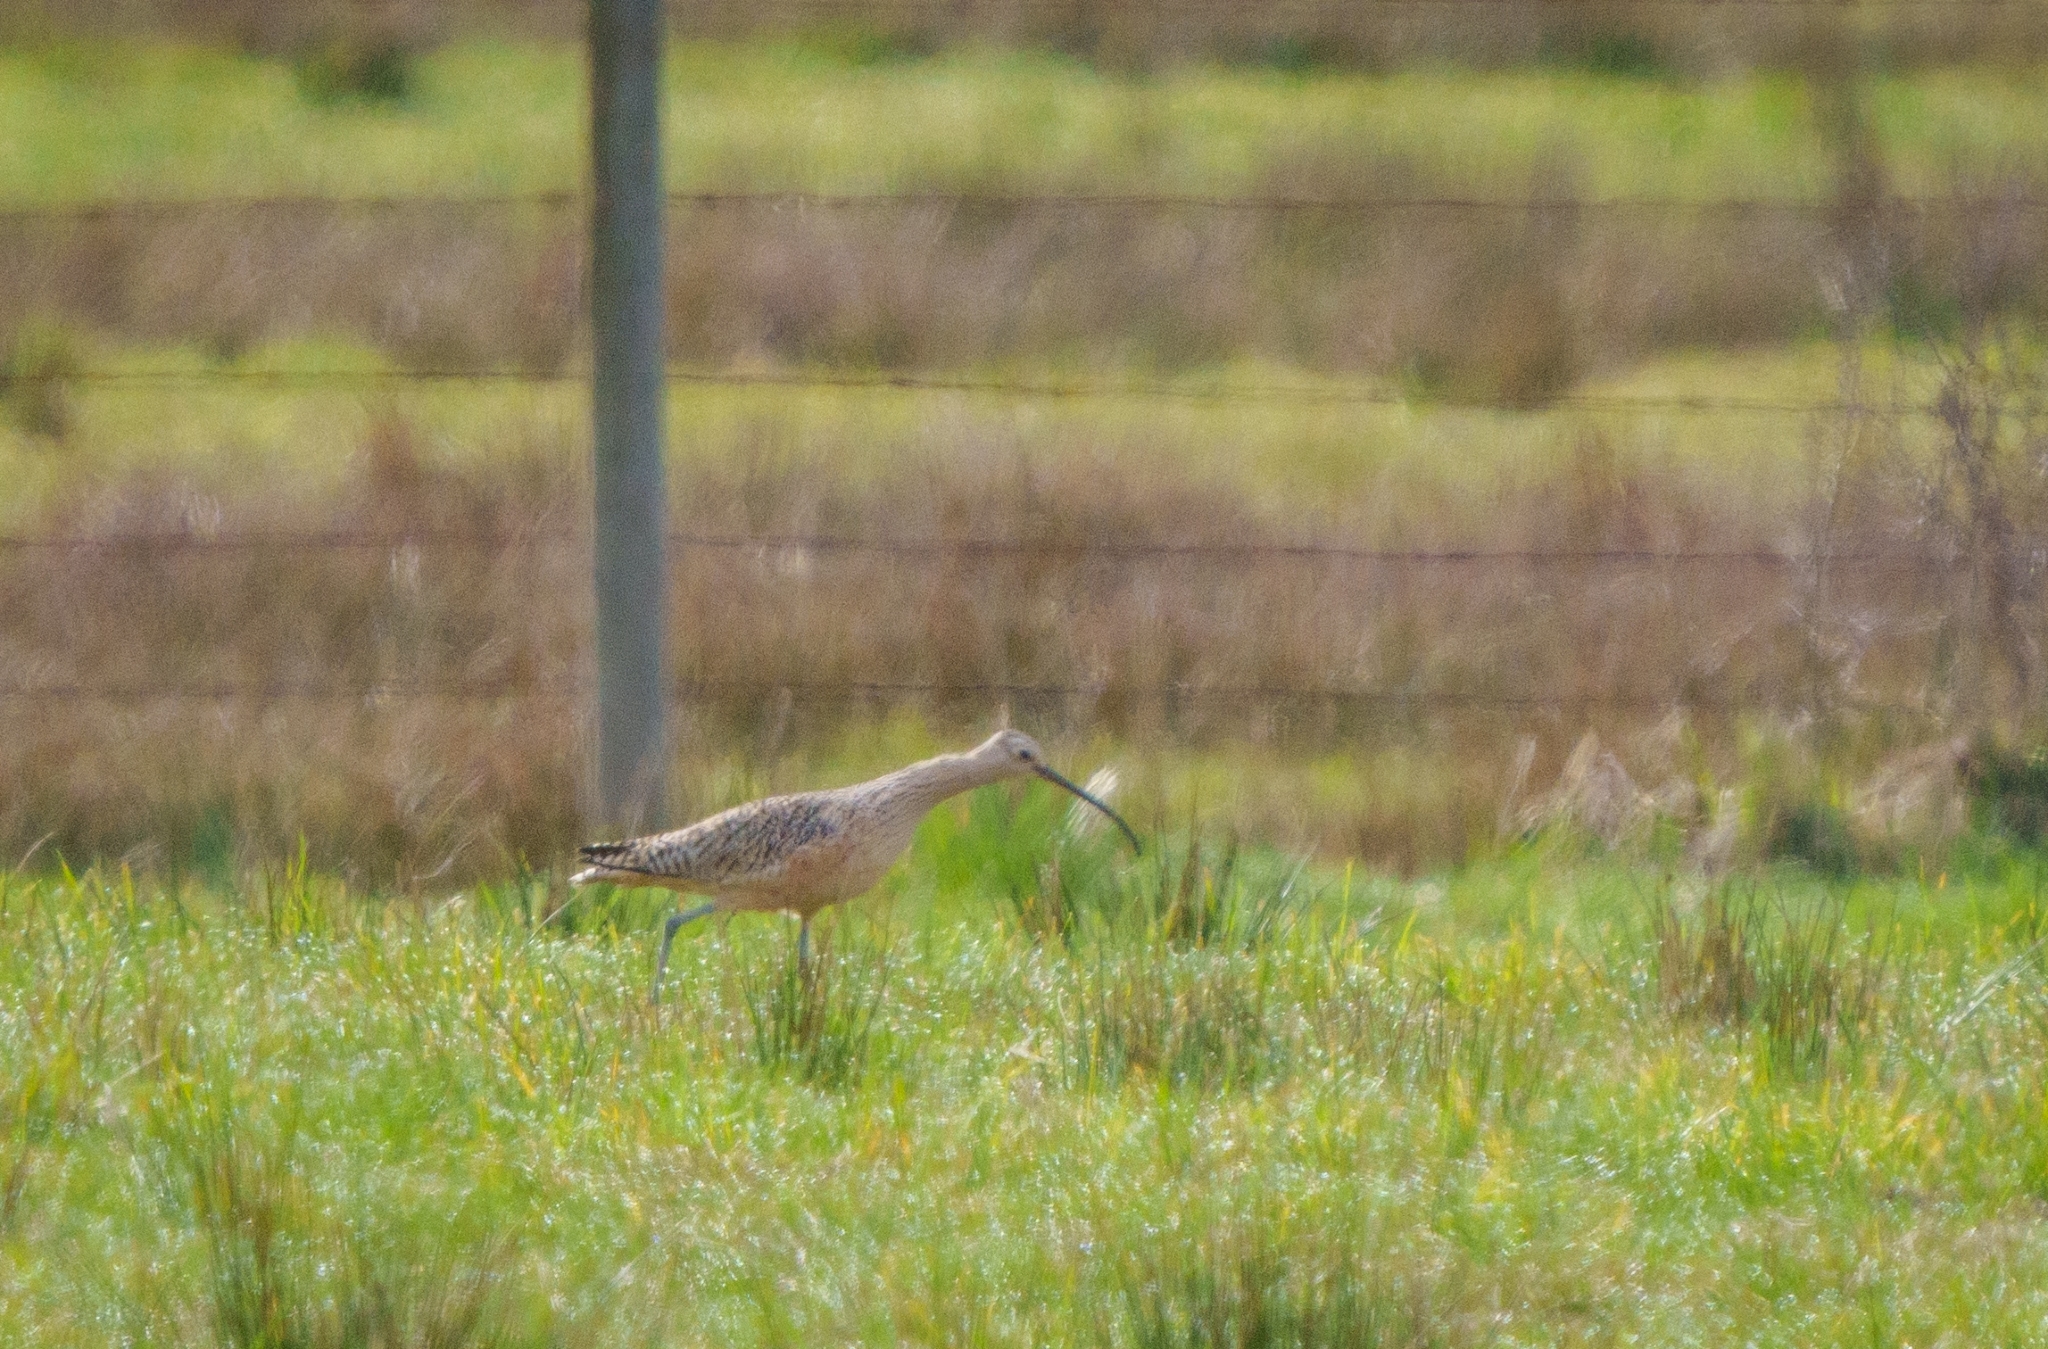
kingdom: Animalia
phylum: Chordata
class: Aves
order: Charadriiformes
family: Scolopacidae
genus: Numenius
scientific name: Numenius americanus
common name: Long-billed curlew
